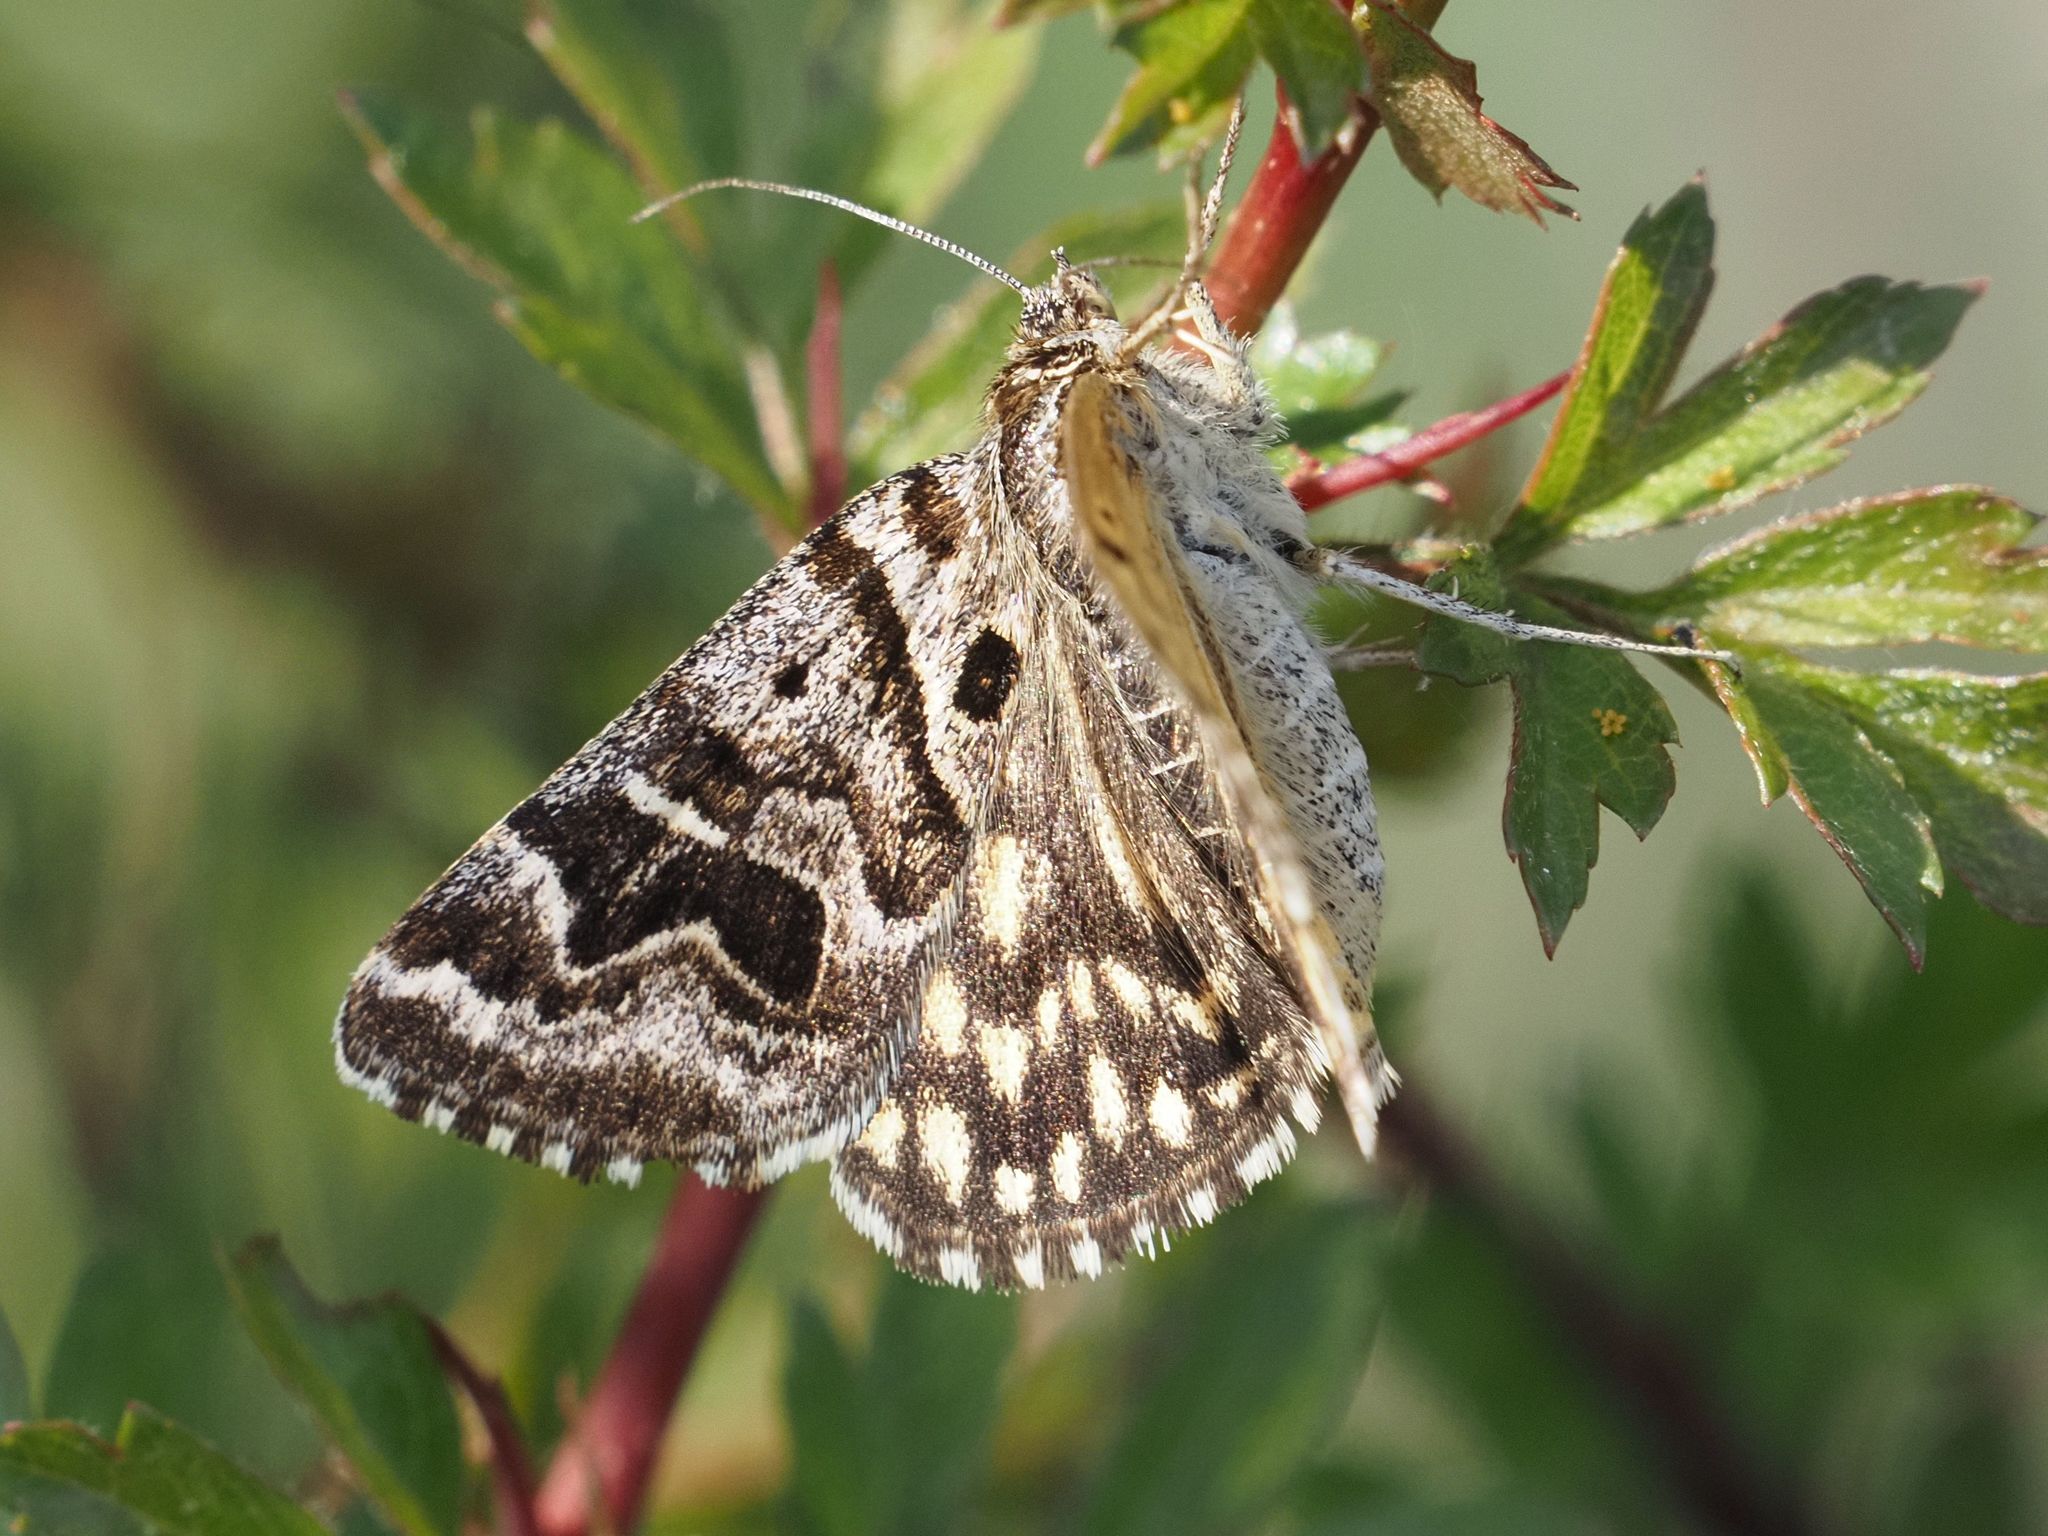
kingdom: Animalia
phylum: Arthropoda
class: Insecta
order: Lepidoptera
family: Erebidae
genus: Callistege
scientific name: Callistege mi
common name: Mother shipton
